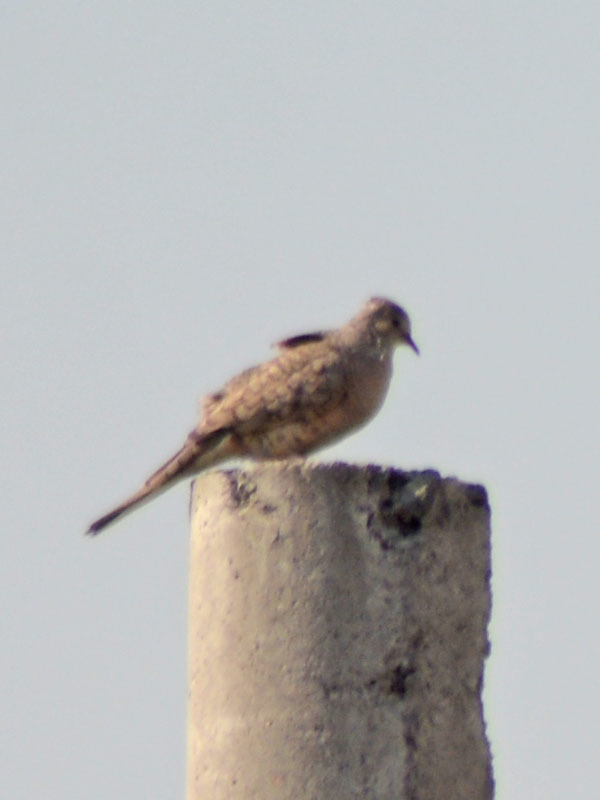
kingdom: Animalia
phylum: Chordata
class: Aves
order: Columbiformes
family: Columbidae
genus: Columbina
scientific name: Columbina inca
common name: Inca dove
